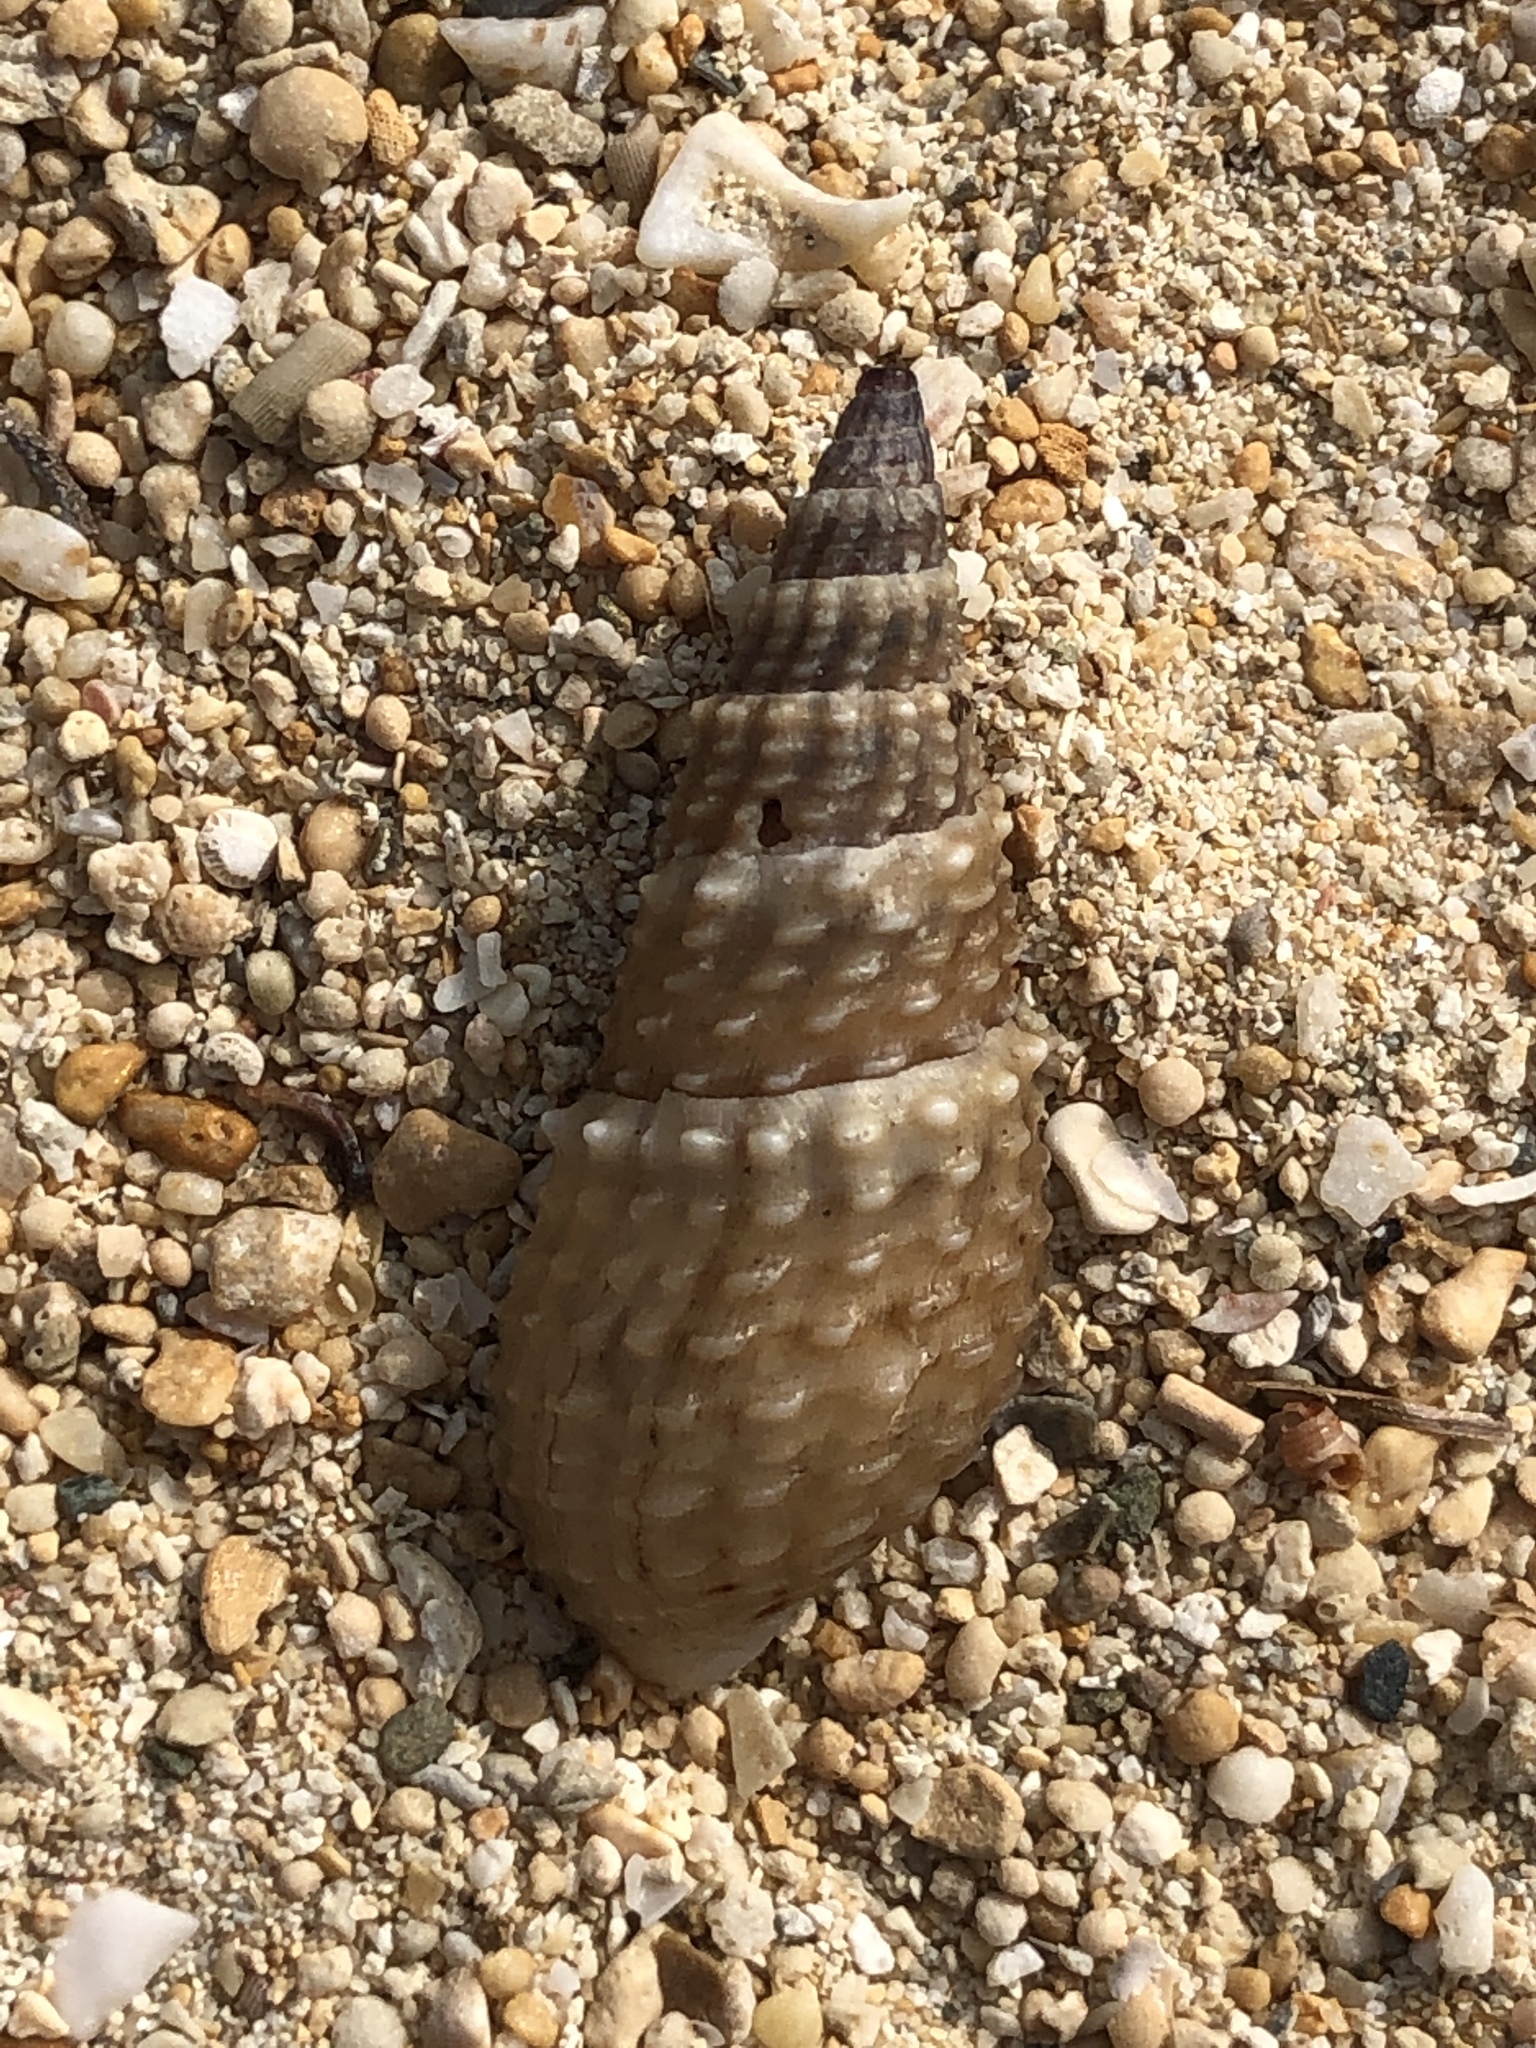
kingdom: Animalia
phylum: Mollusca
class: Gastropoda
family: Thiaridae
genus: Tarebia
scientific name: Tarebia granifera
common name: Quilted melania
